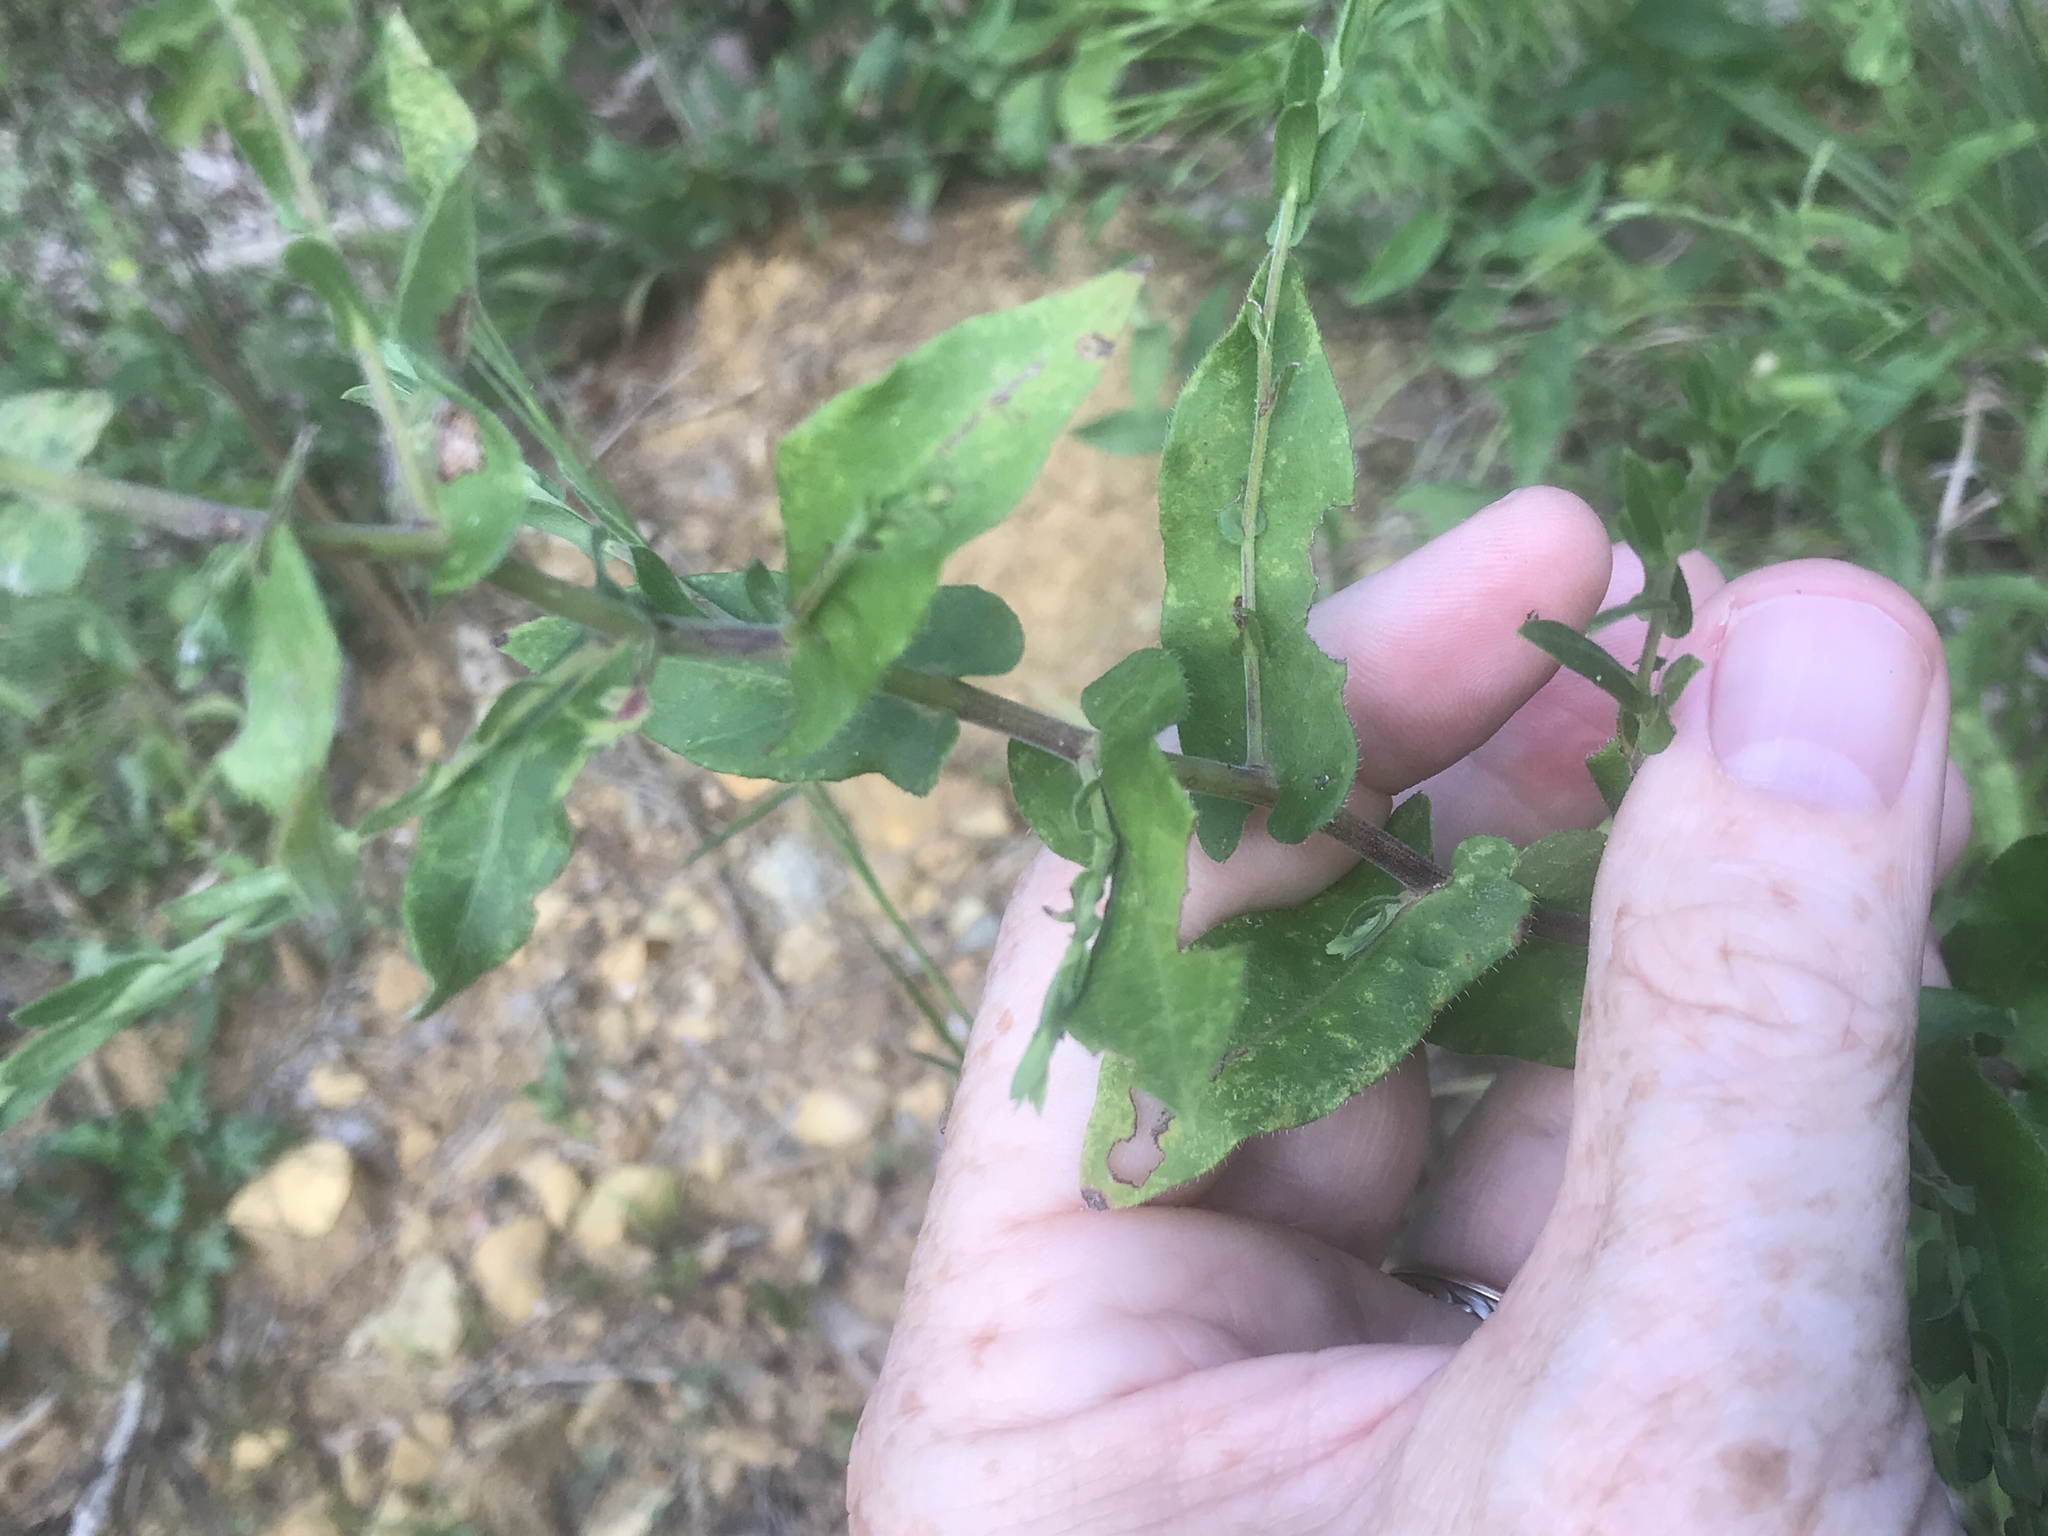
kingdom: Plantae
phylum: Tracheophyta
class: Magnoliopsida
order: Asterales
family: Asteraceae
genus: Symphyotrichum
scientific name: Symphyotrichum patens
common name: Late purple aster
